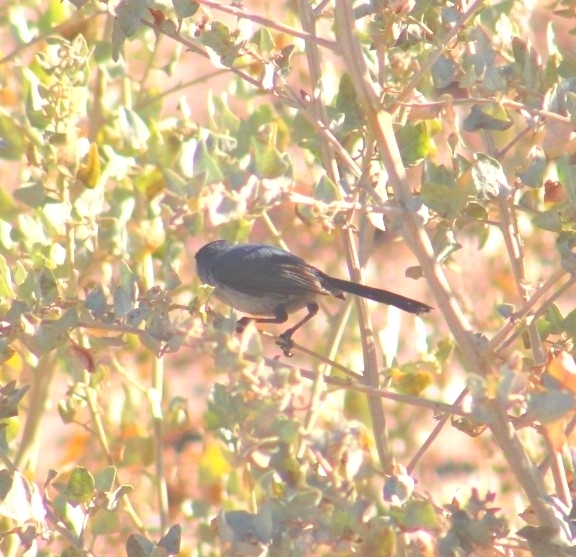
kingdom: Animalia
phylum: Chordata
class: Aves
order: Passeriformes
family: Polioptilidae
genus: Polioptila
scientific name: Polioptila melanura
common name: Black-tailed gnatcatcher
